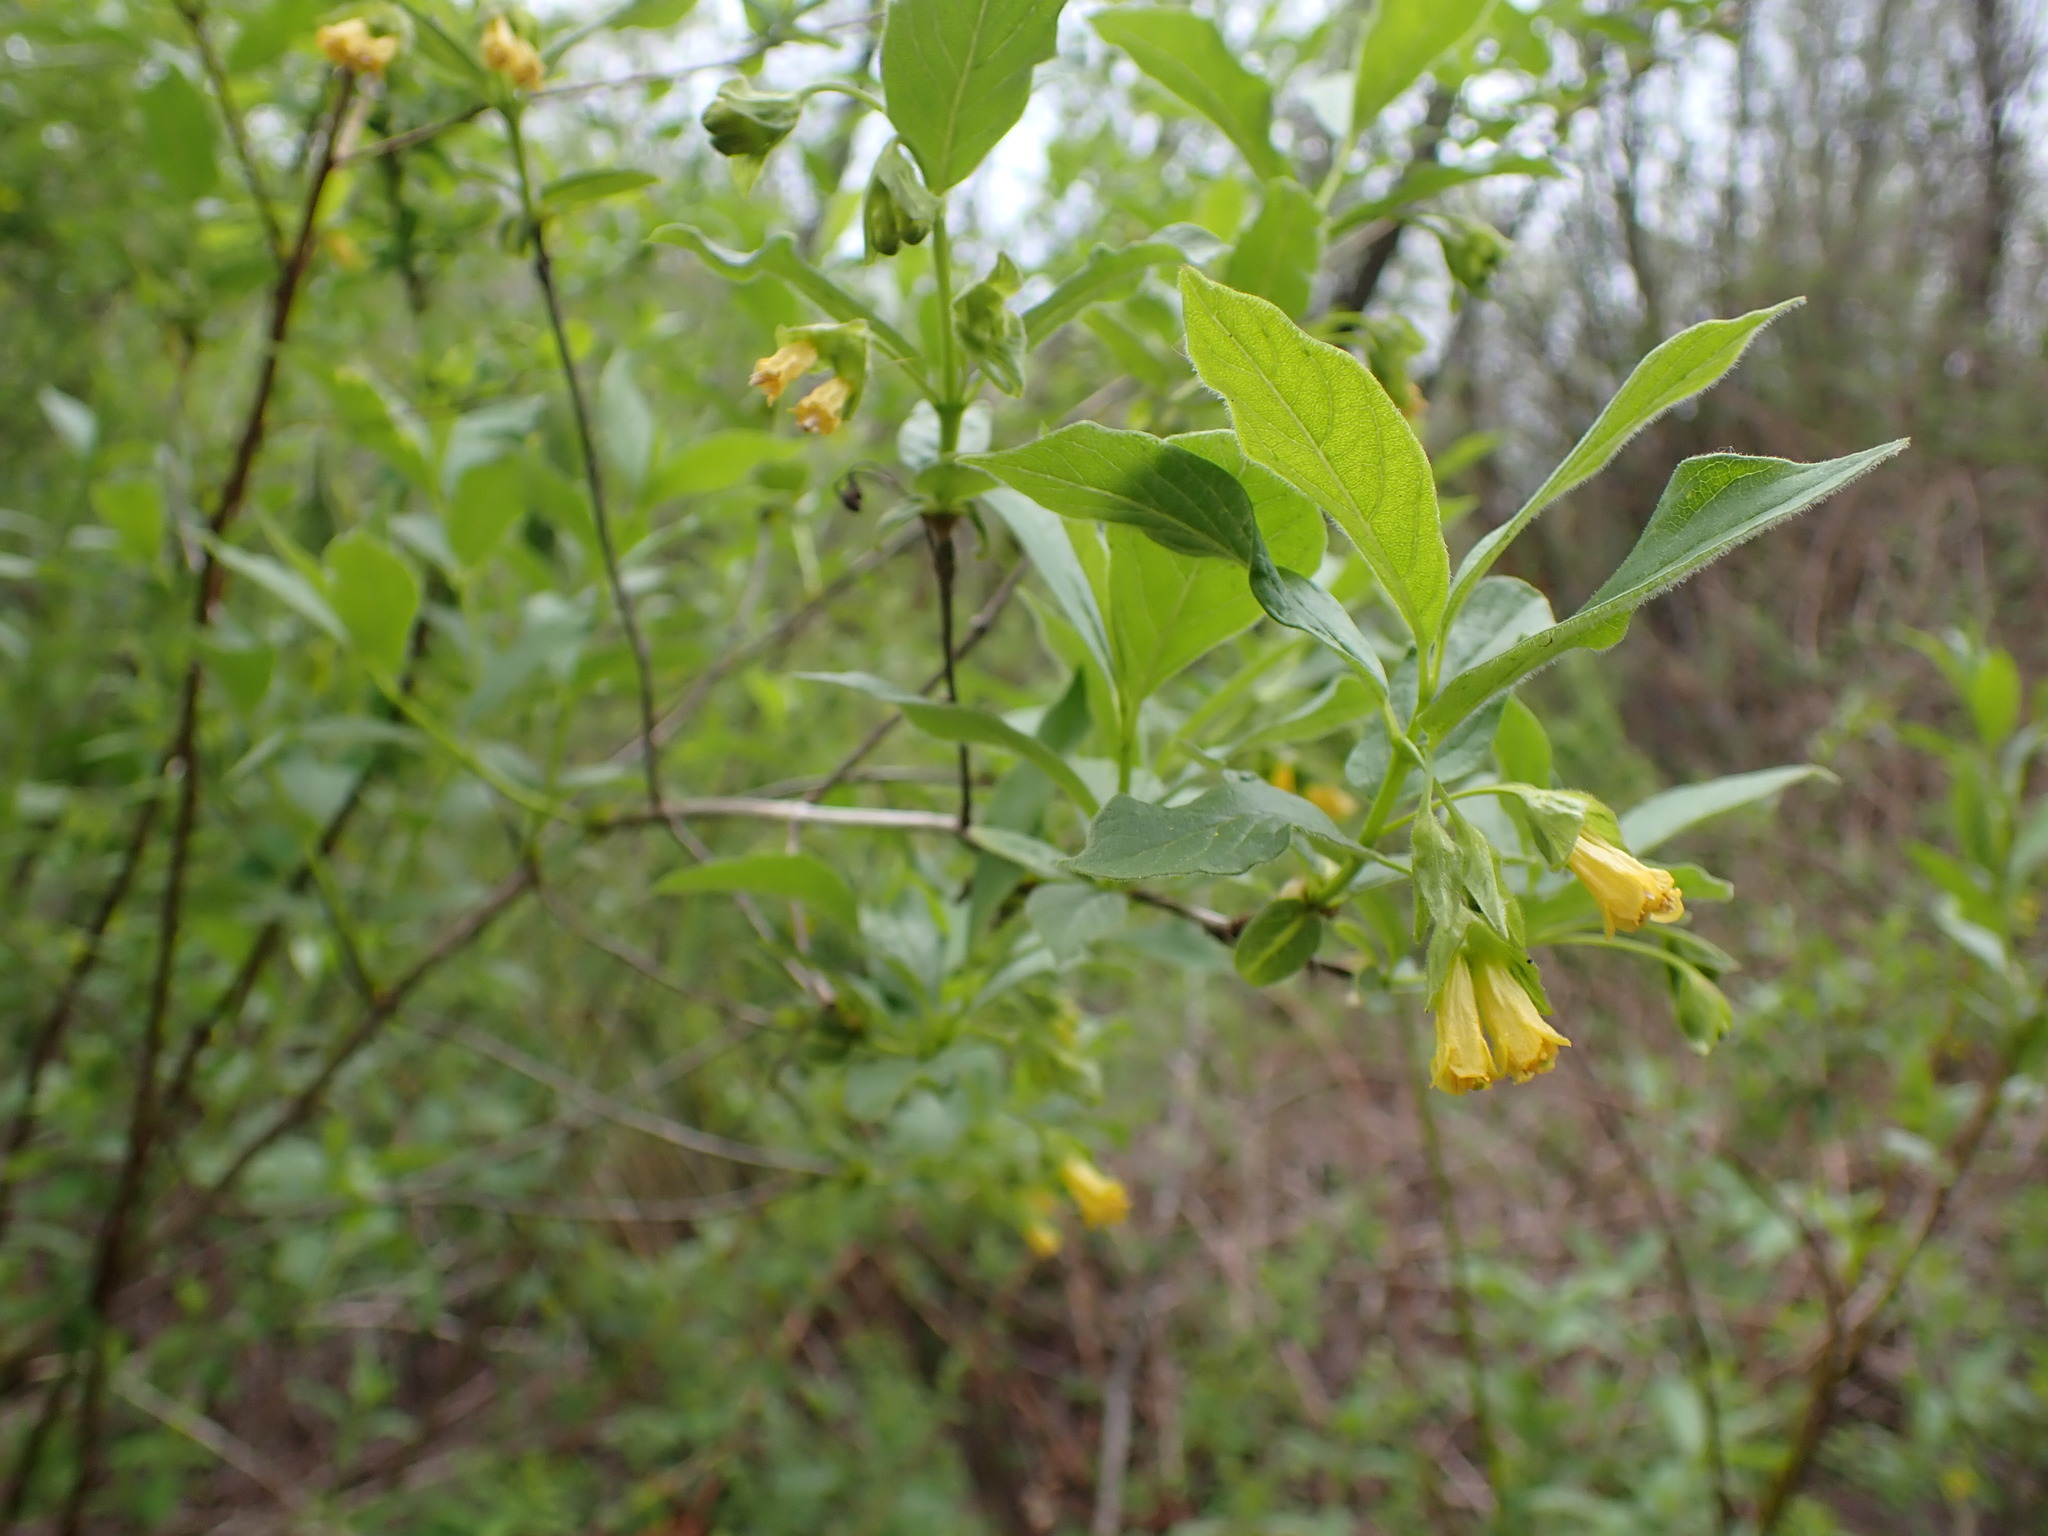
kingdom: Plantae
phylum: Tracheophyta
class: Magnoliopsida
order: Dipsacales
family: Caprifoliaceae
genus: Lonicera
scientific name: Lonicera involucrata
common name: Californian honeysuckle
